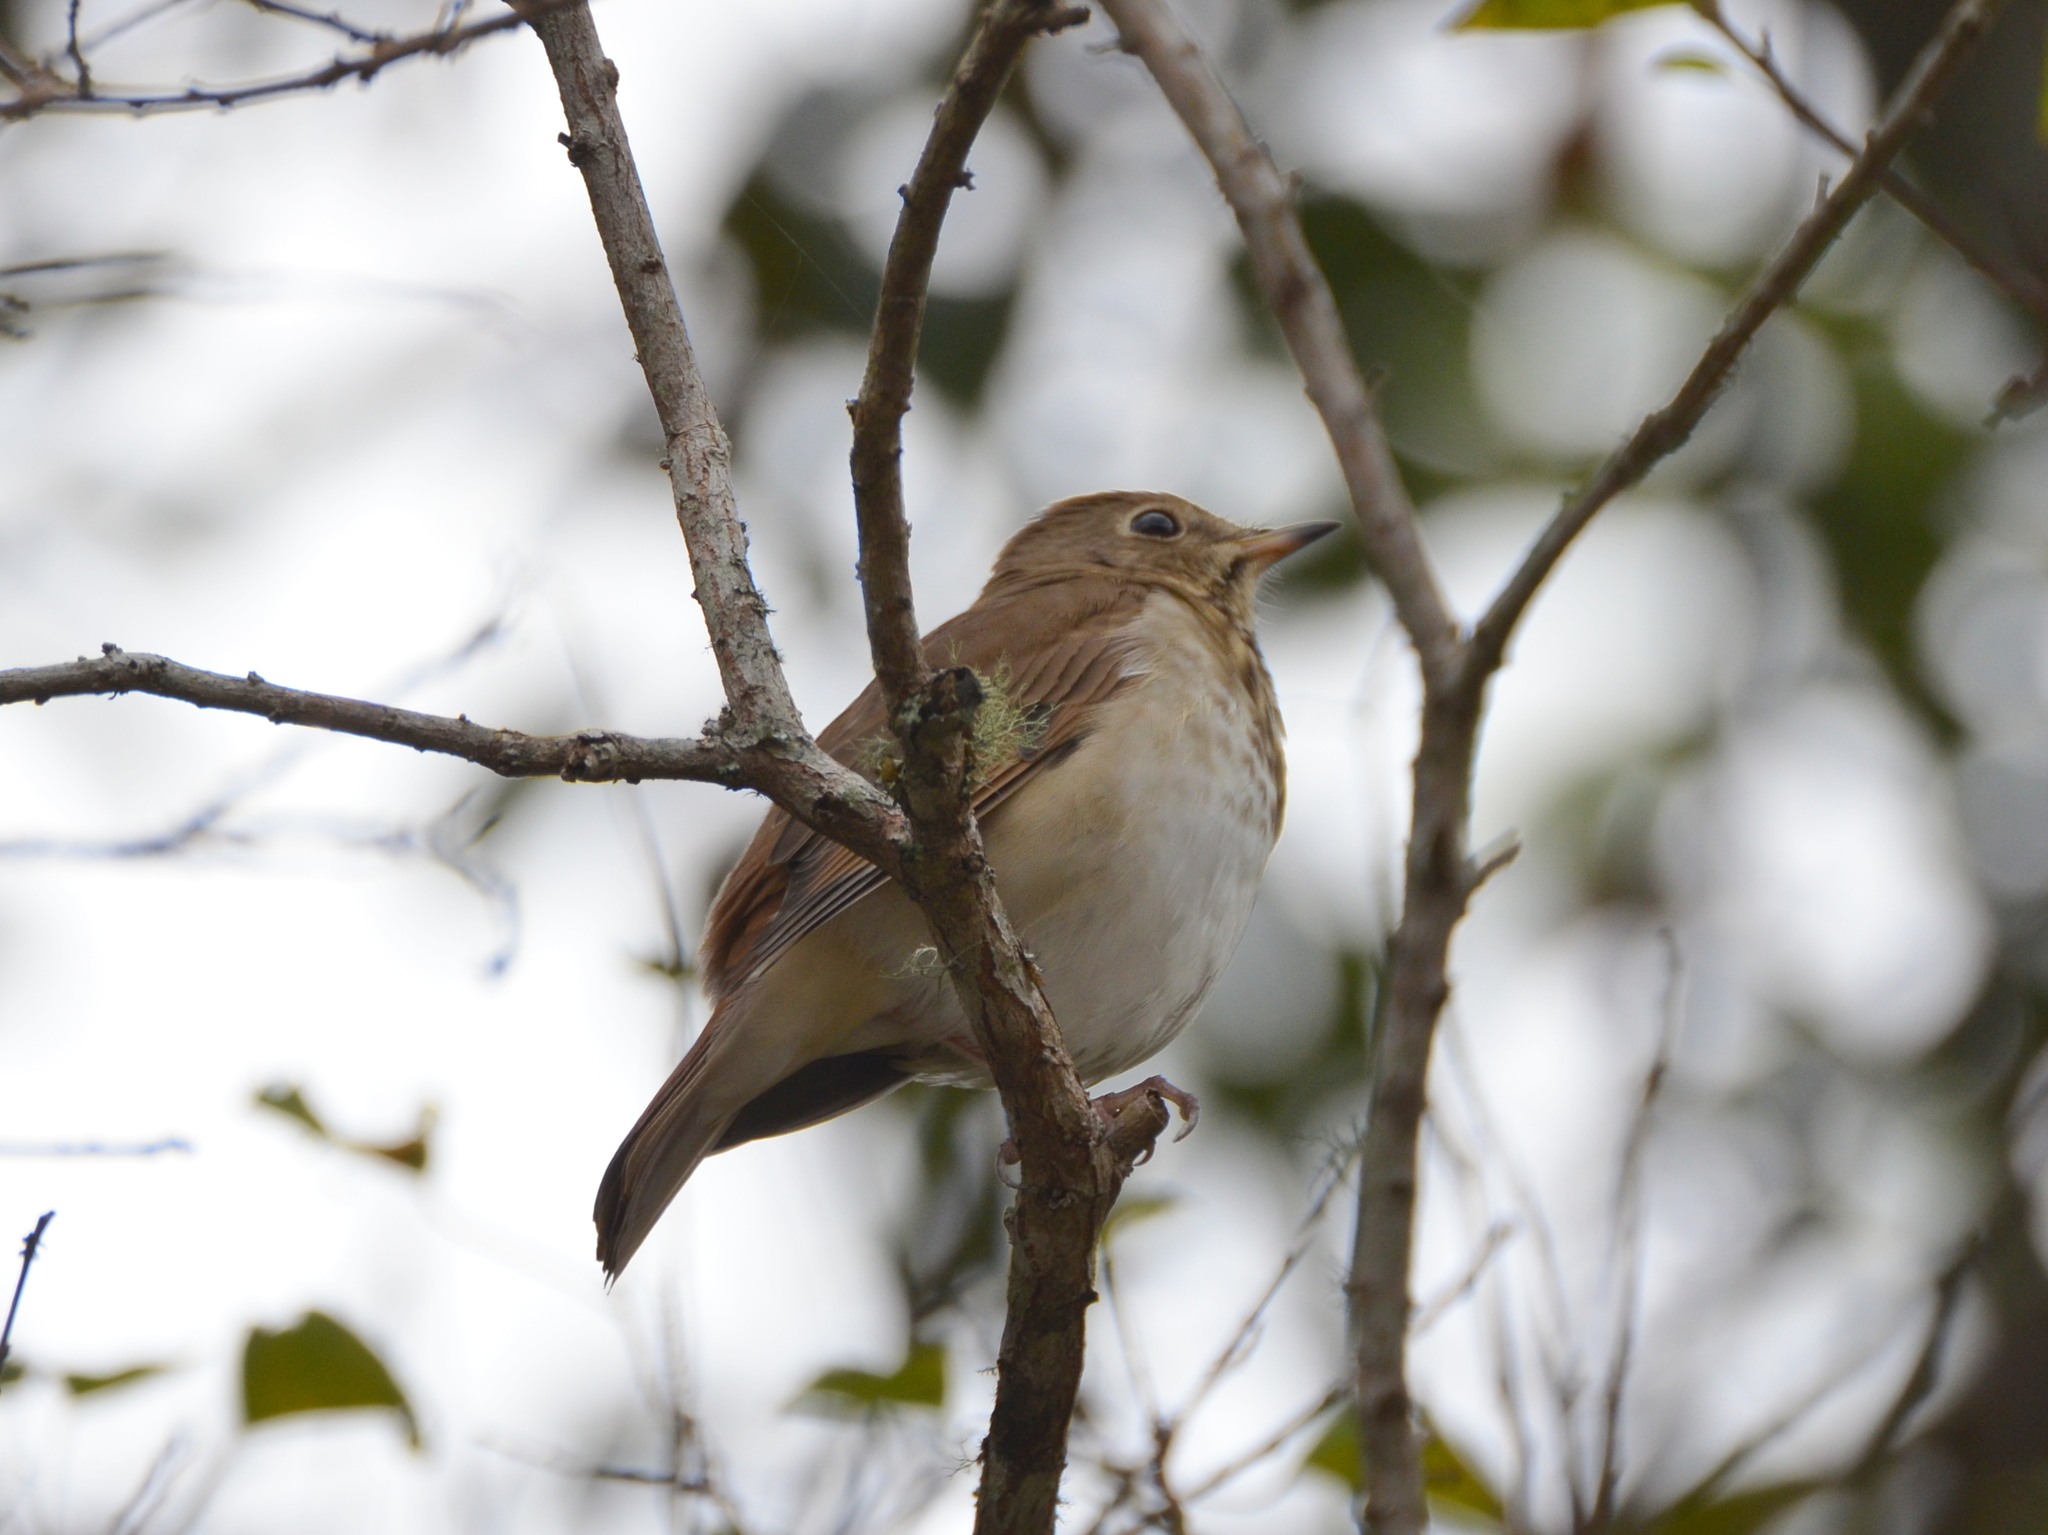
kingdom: Animalia
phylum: Chordata
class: Aves
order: Passeriformes
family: Turdidae
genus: Catharus
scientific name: Catharus guttatus
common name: Hermit thrush
